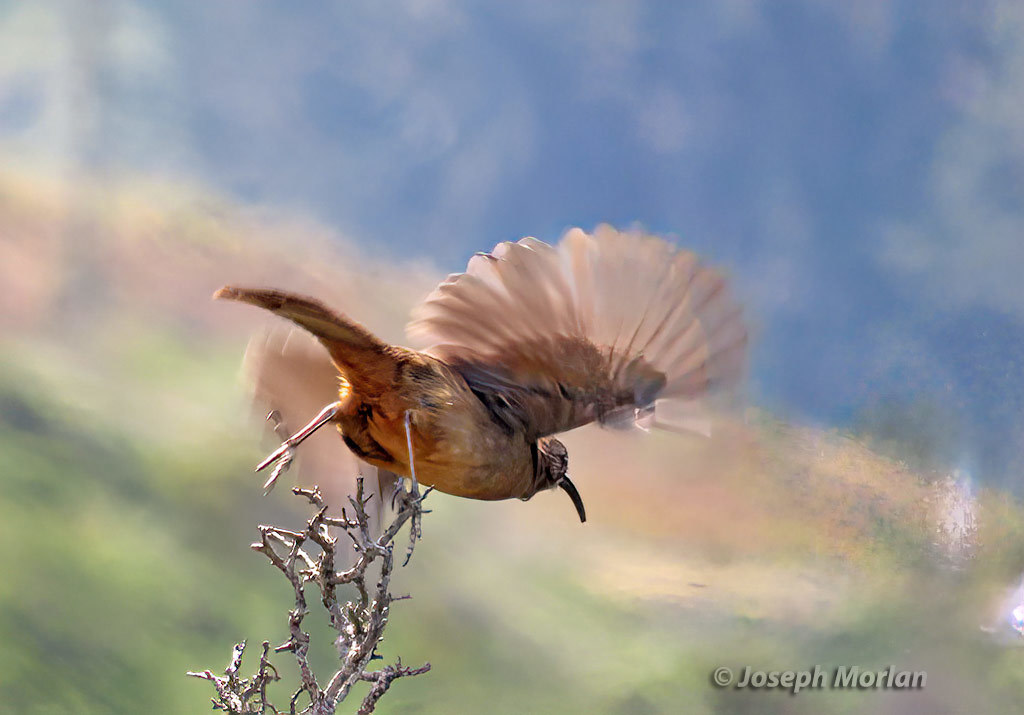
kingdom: Animalia
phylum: Chordata
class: Aves
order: Passeriformes
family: Mimidae
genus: Toxostoma
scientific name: Toxostoma redivivum
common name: California thrasher
